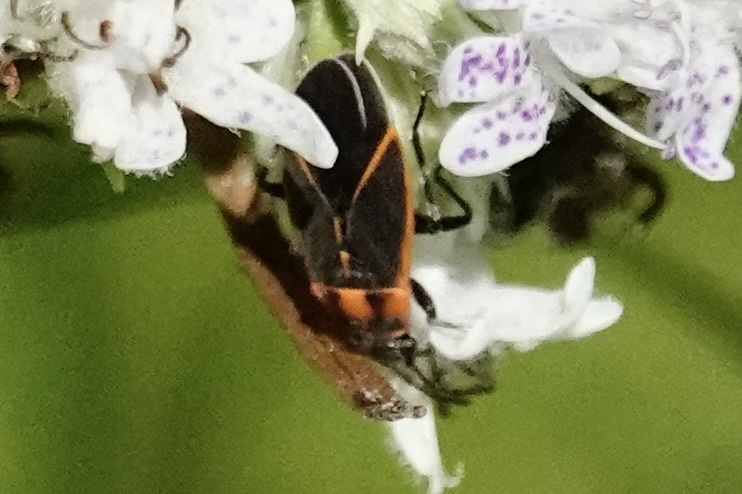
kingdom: Animalia
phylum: Arthropoda
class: Insecta
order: Hemiptera
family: Lygaeidae
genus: Ochrimnus
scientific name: Ochrimnus lineoloides
